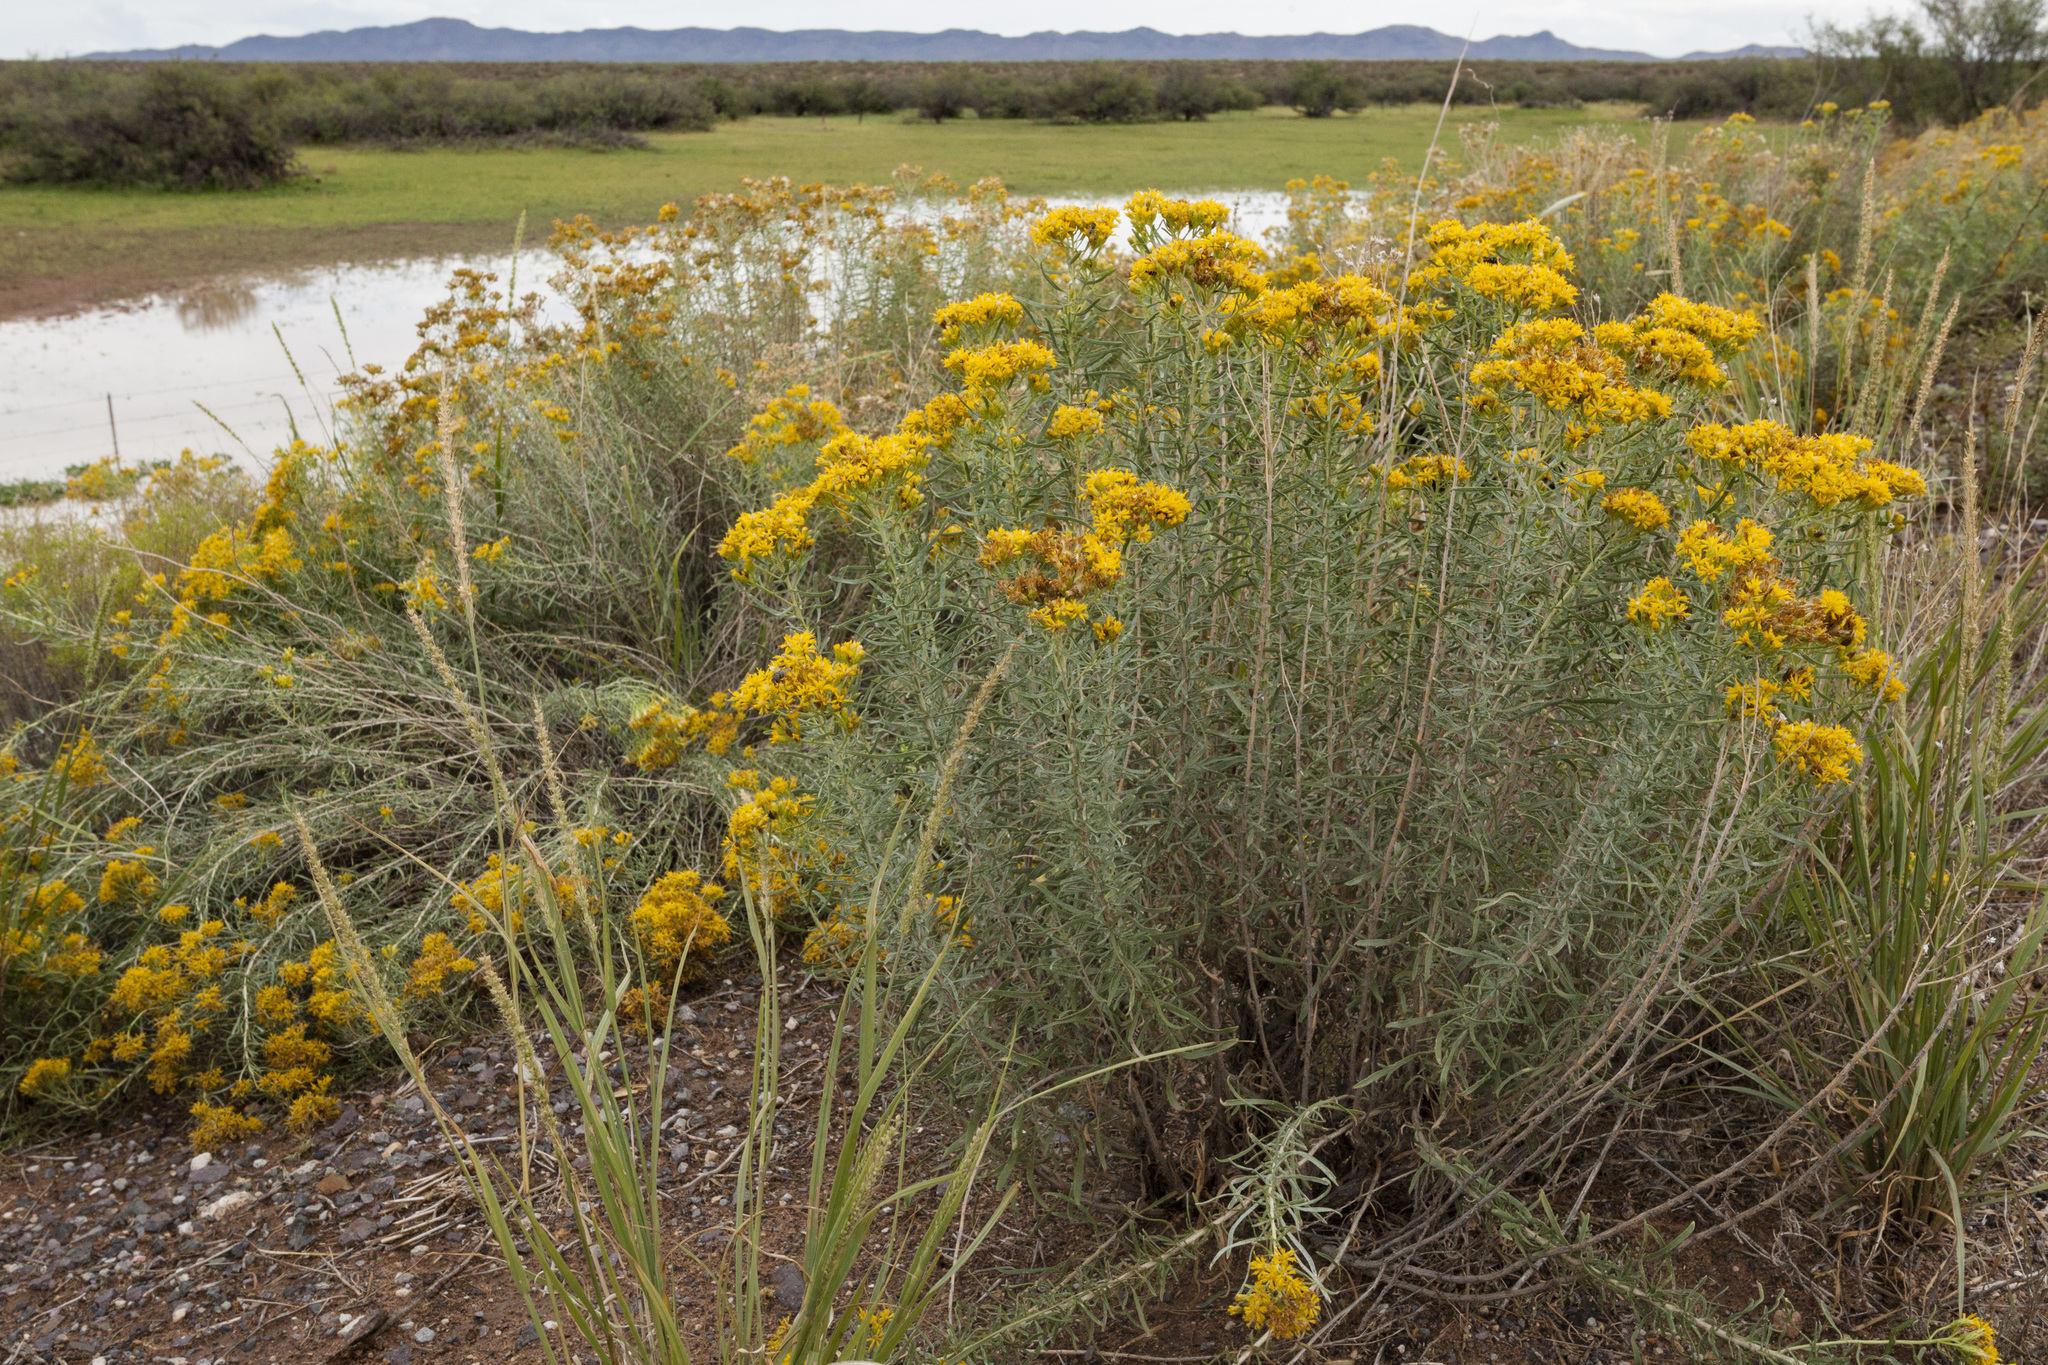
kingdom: Plantae
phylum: Tracheophyta
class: Magnoliopsida
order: Asterales
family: Asteraceae
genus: Isocoma
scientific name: Isocoma pluriflora
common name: Southern jimmyweed
